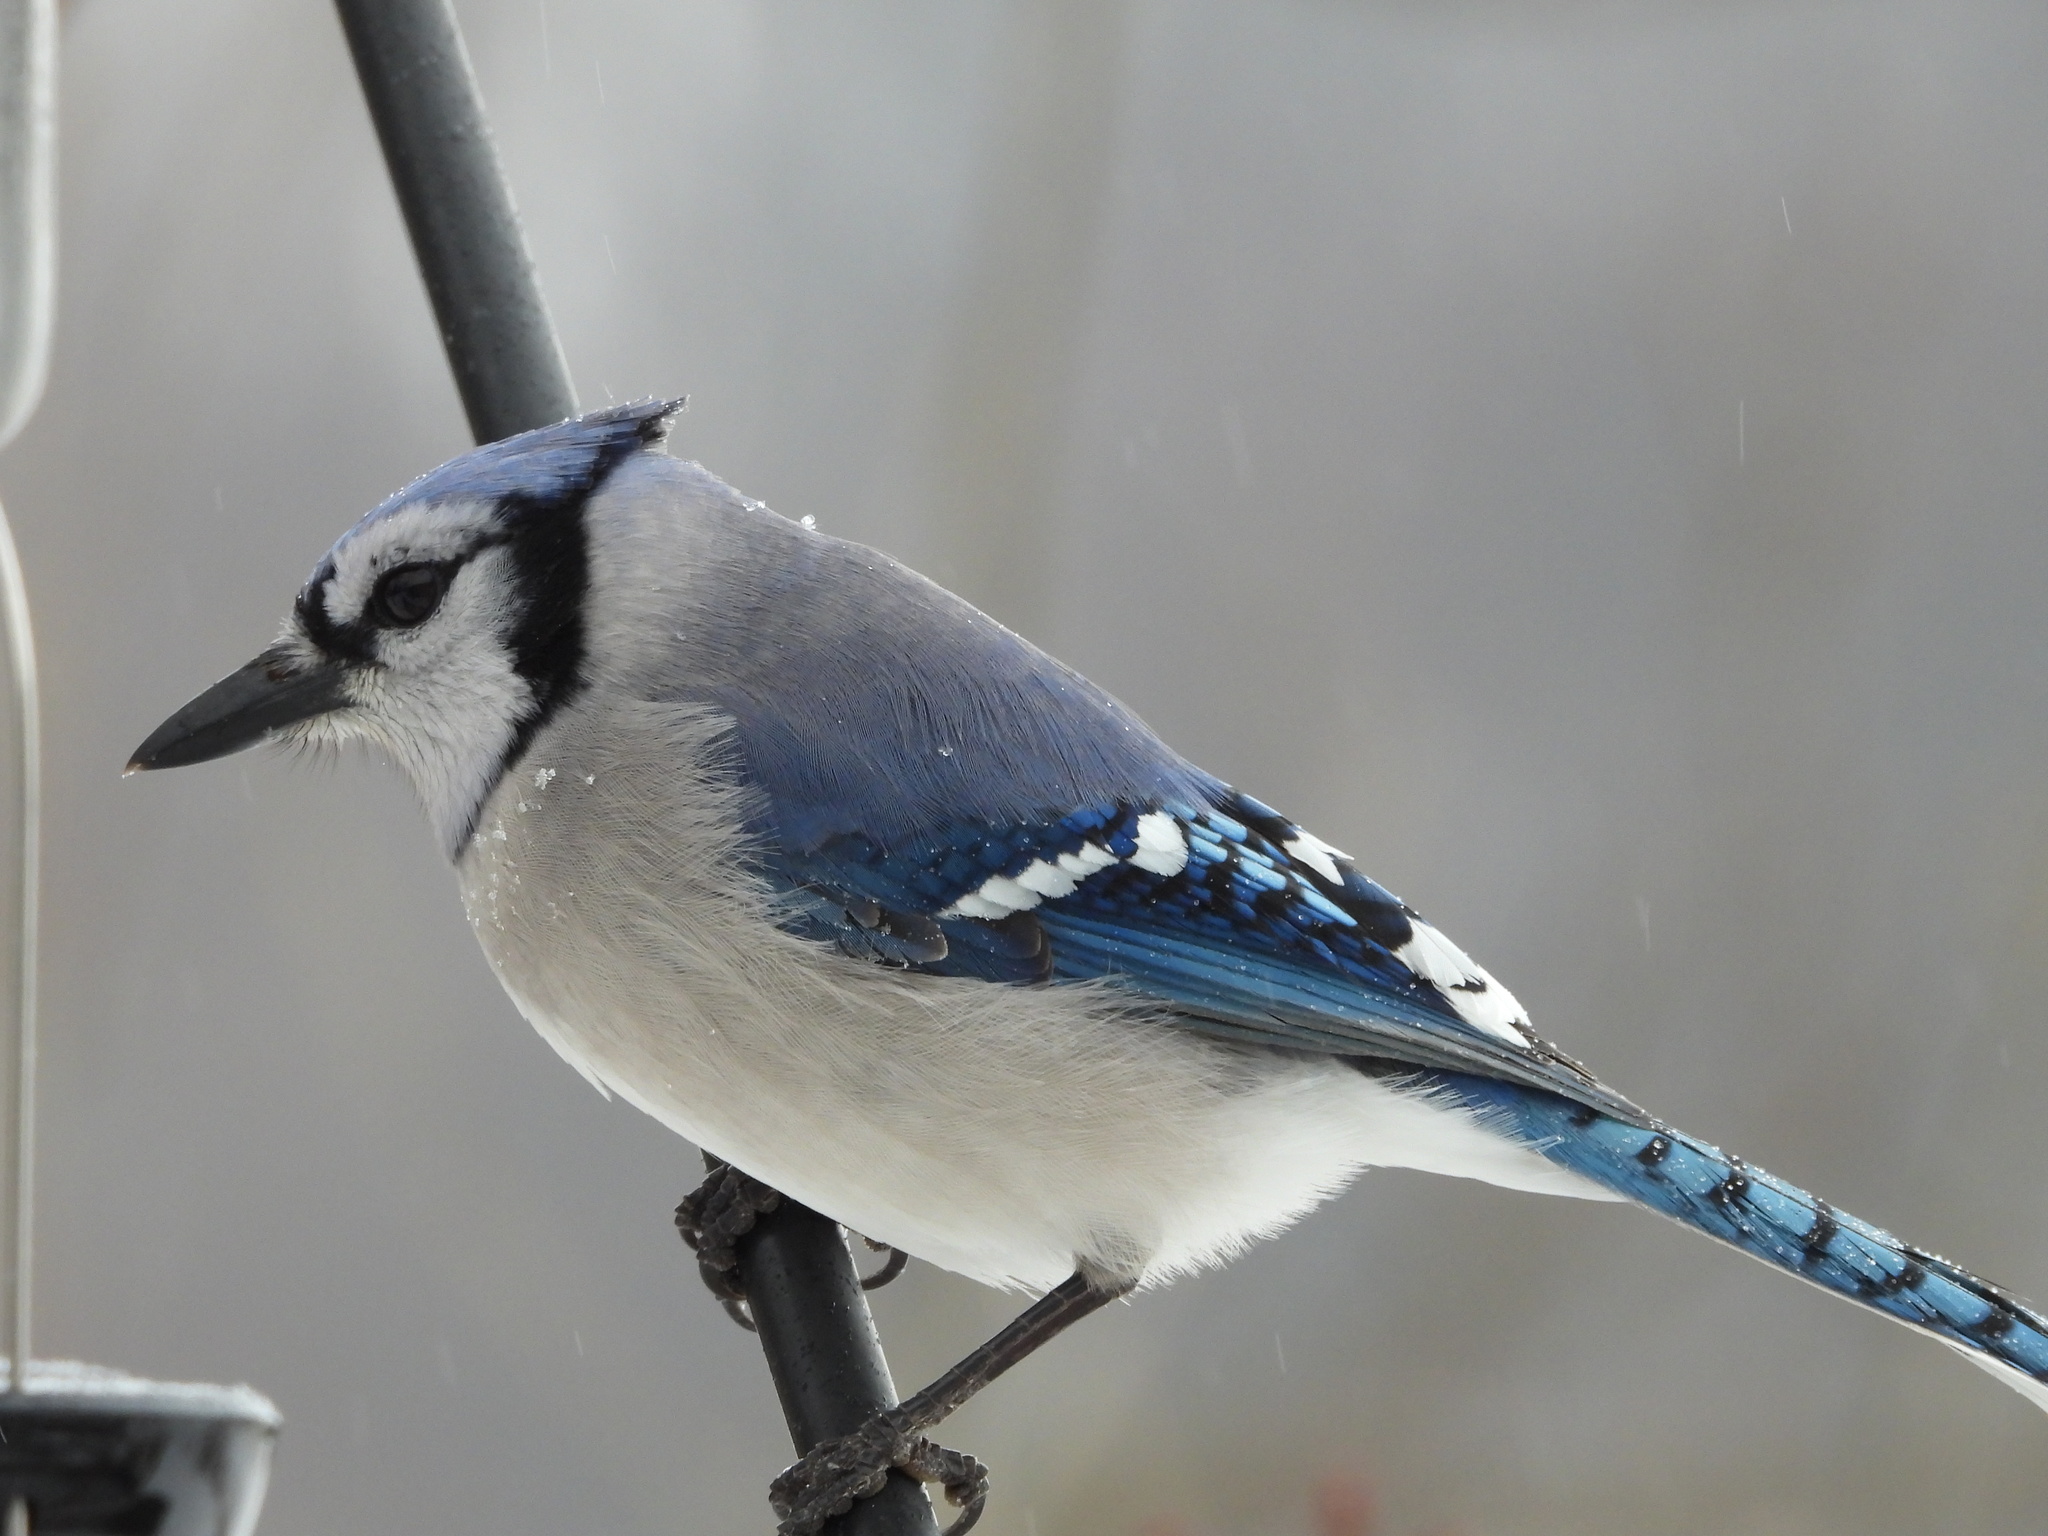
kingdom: Animalia
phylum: Chordata
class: Aves
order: Passeriformes
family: Corvidae
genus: Cyanocitta
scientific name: Cyanocitta cristata
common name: Blue jay
